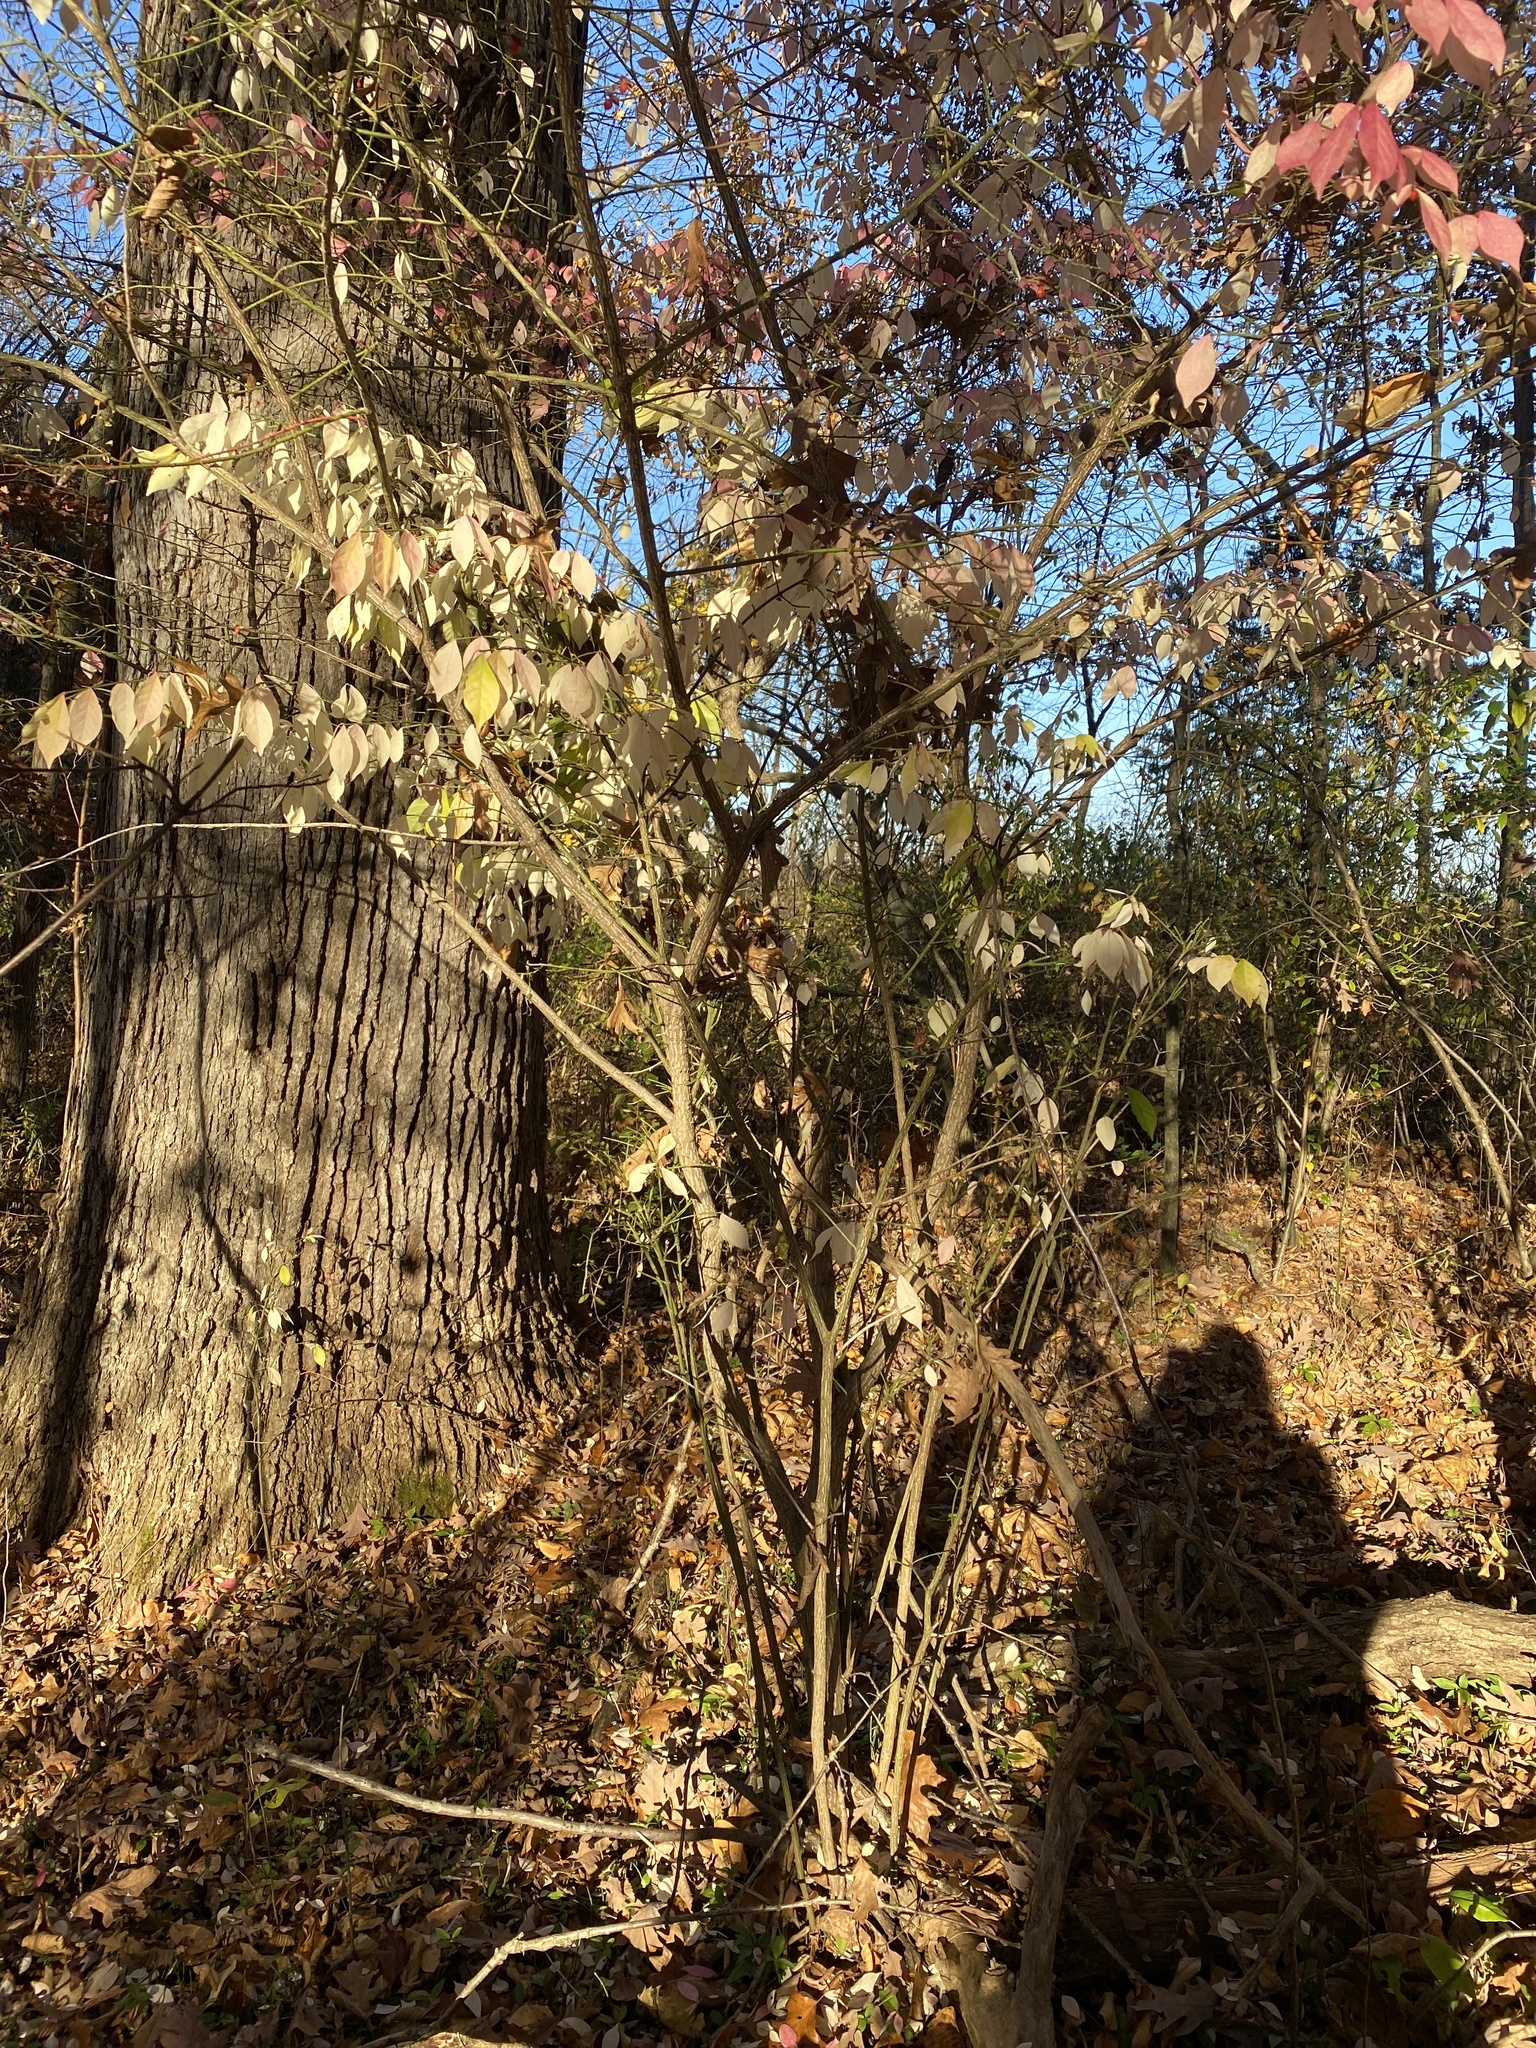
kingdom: Plantae
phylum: Tracheophyta
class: Magnoliopsida
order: Celastrales
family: Celastraceae
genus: Euonymus
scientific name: Euonymus alatus
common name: Winged euonymus
